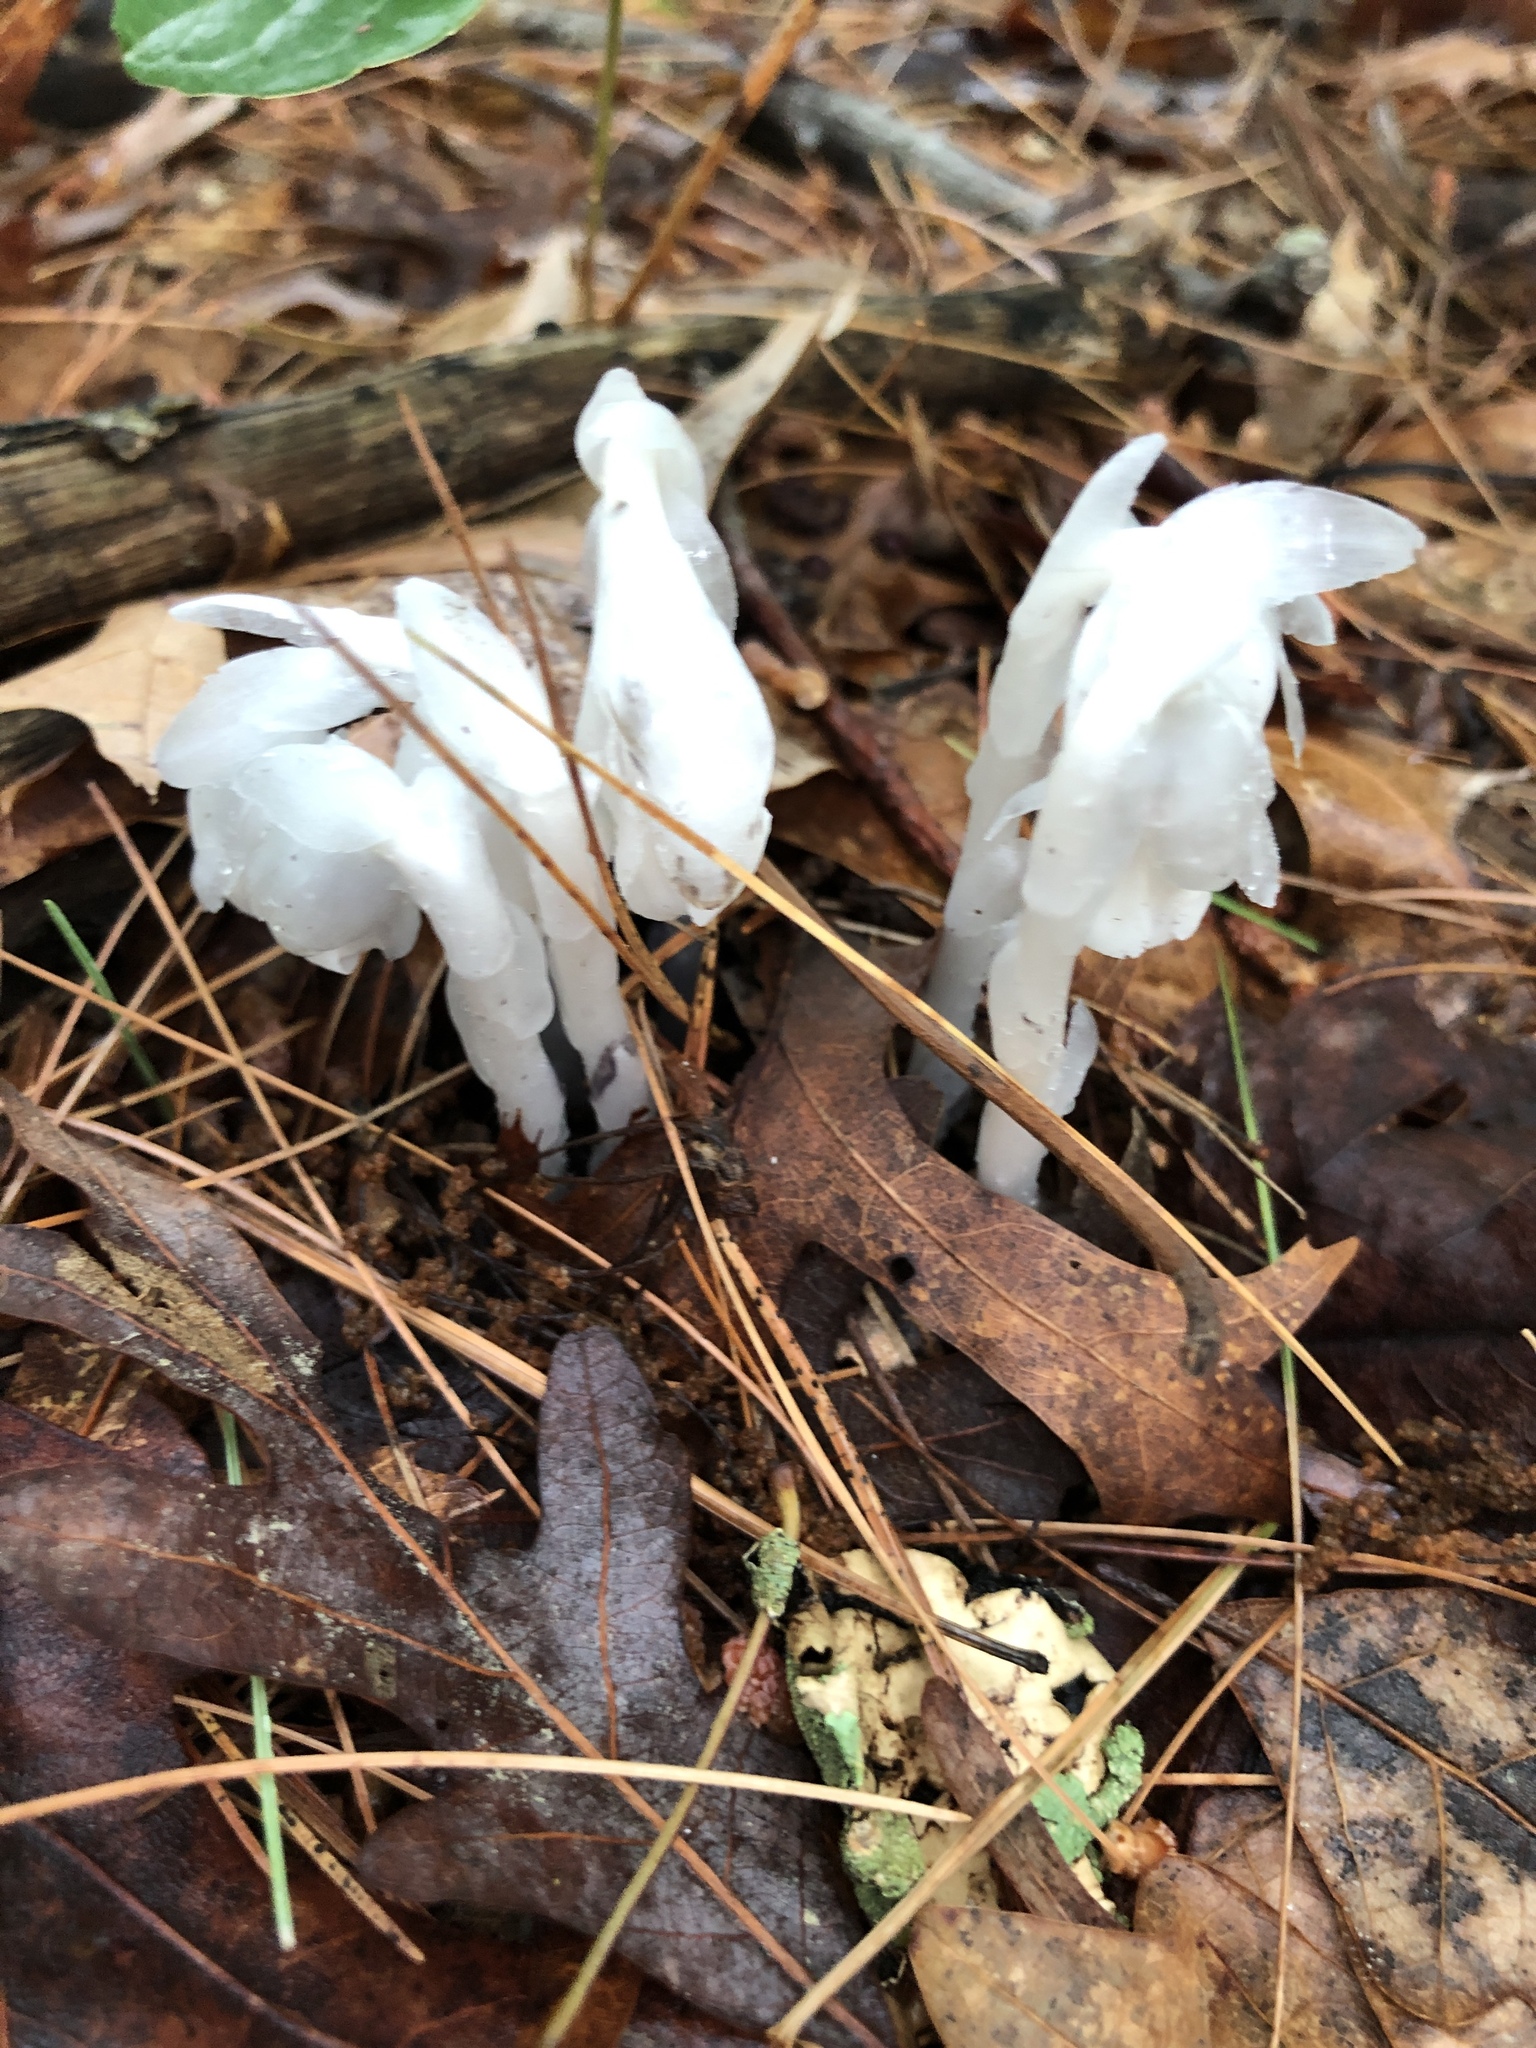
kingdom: Plantae
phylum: Tracheophyta
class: Magnoliopsida
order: Ericales
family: Ericaceae
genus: Monotropa
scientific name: Monotropa uniflora
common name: Convulsion root
